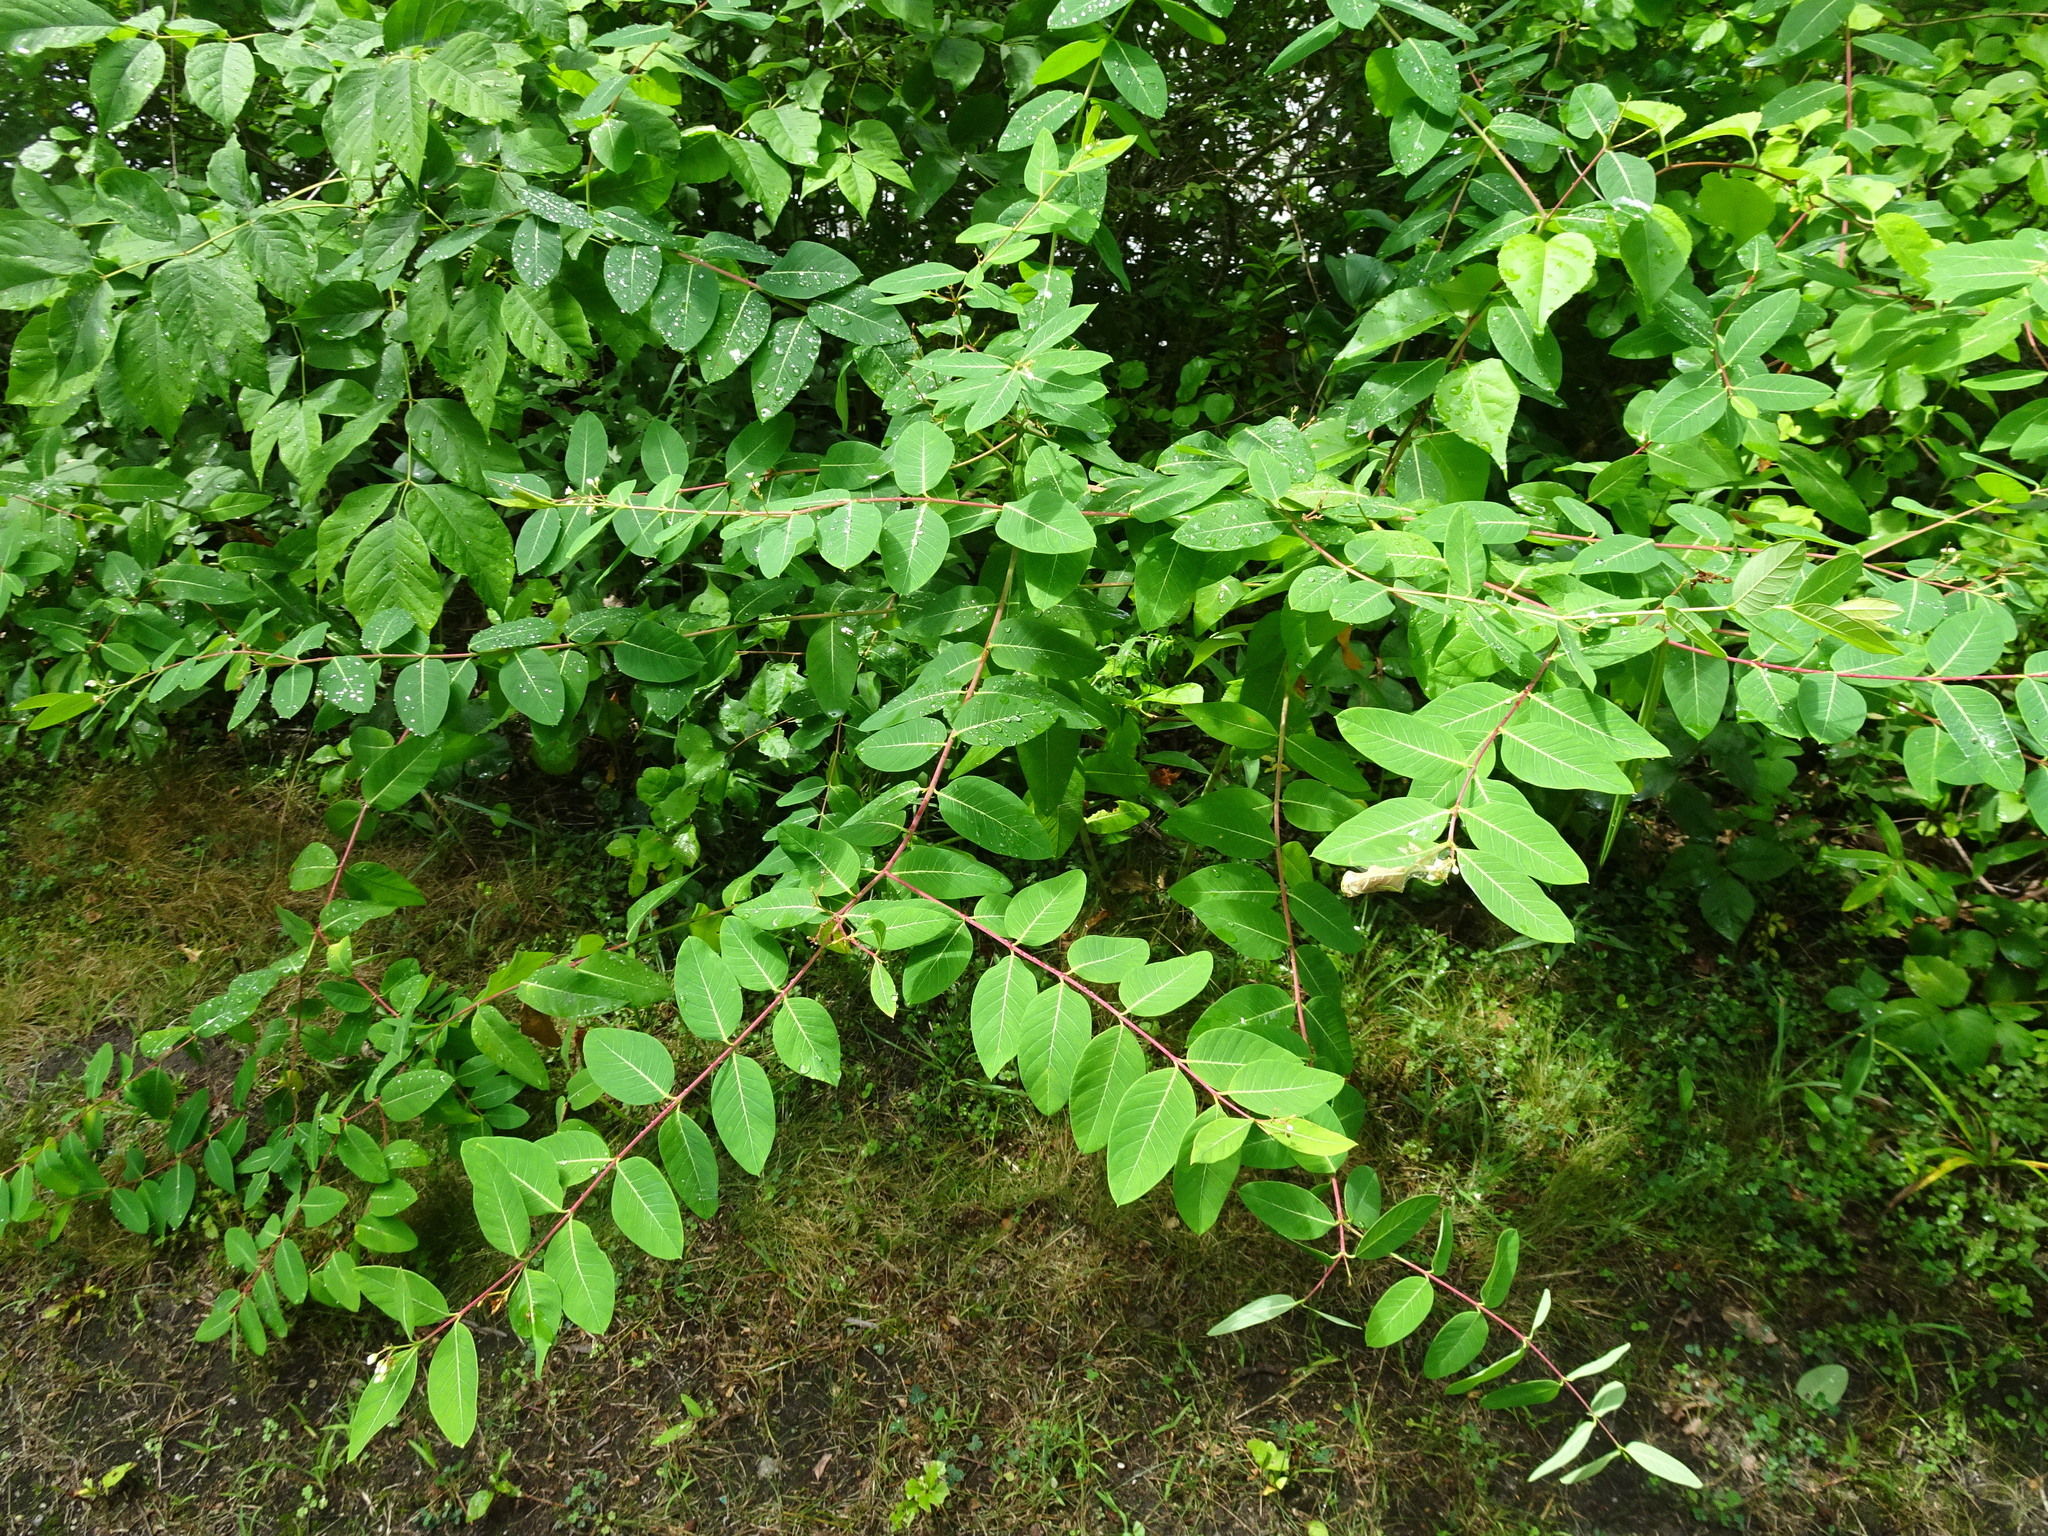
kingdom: Plantae
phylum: Tracheophyta
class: Magnoliopsida
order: Gentianales
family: Apocynaceae
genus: Apocynum
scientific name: Apocynum cannabinum
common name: Hemp dogbane
